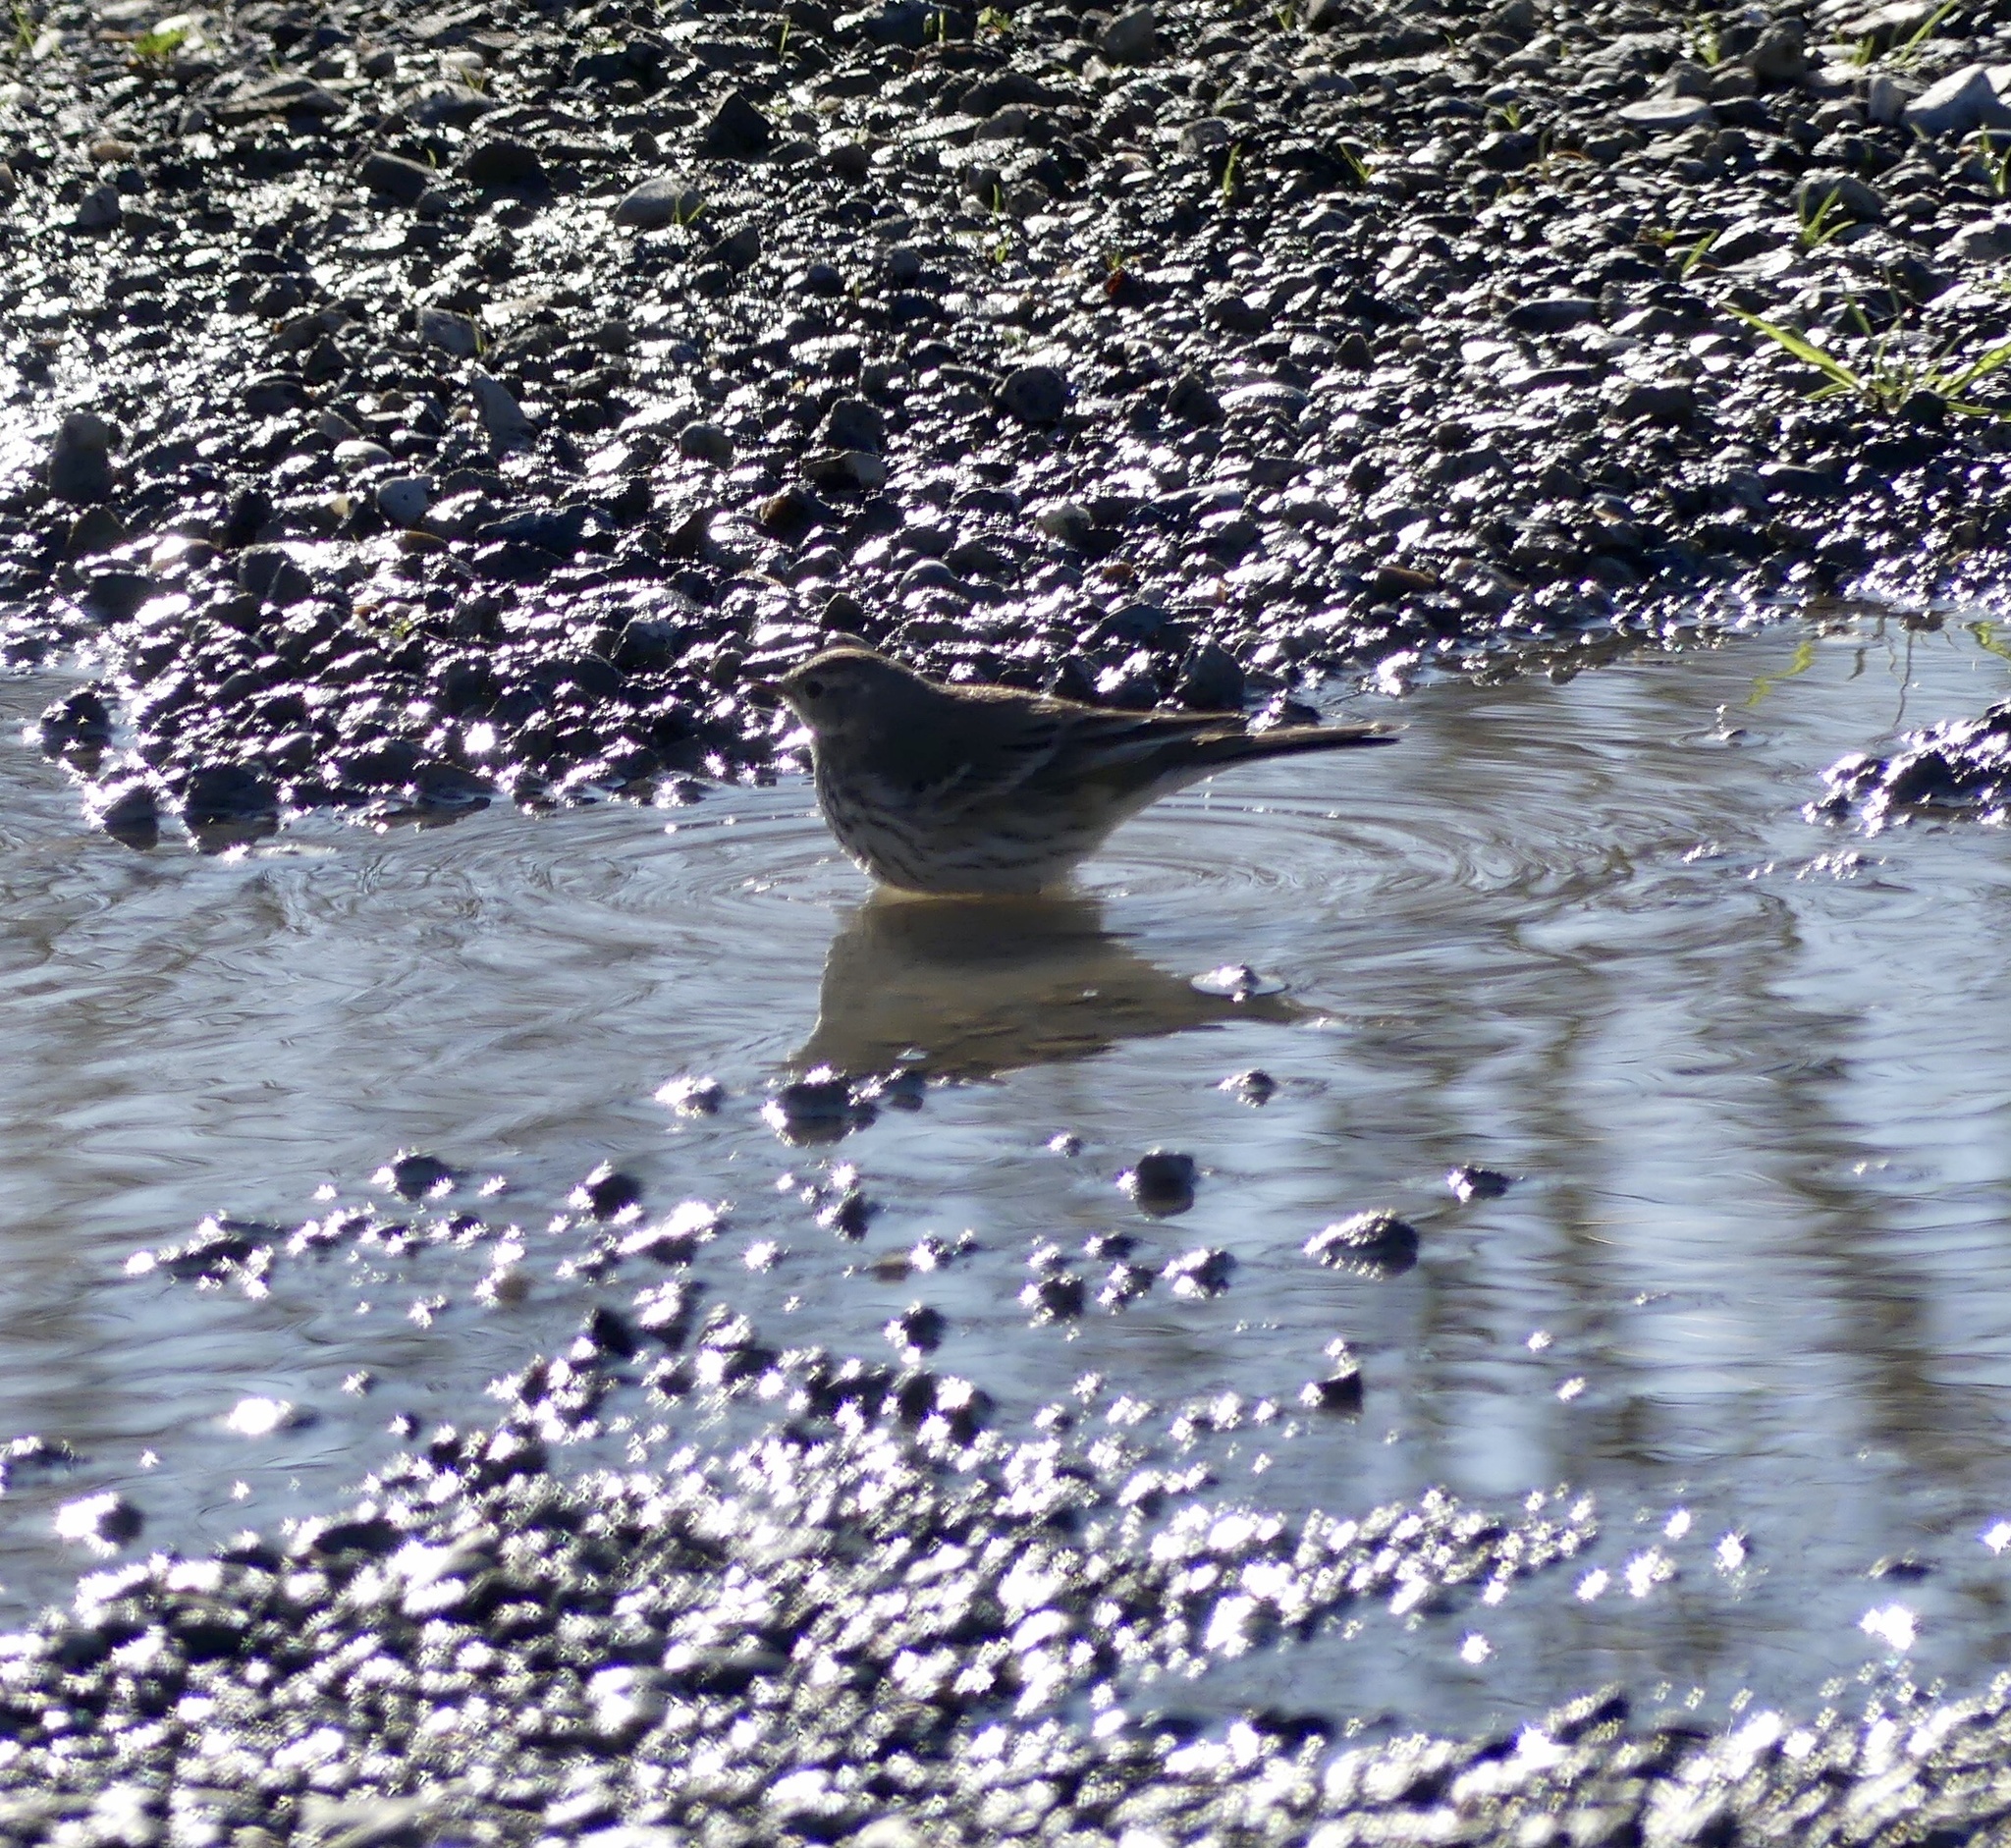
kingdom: Animalia
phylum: Chordata
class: Aves
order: Passeriformes
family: Motacillidae
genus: Anthus
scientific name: Anthus rubescens
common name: Buff-bellied pipit
